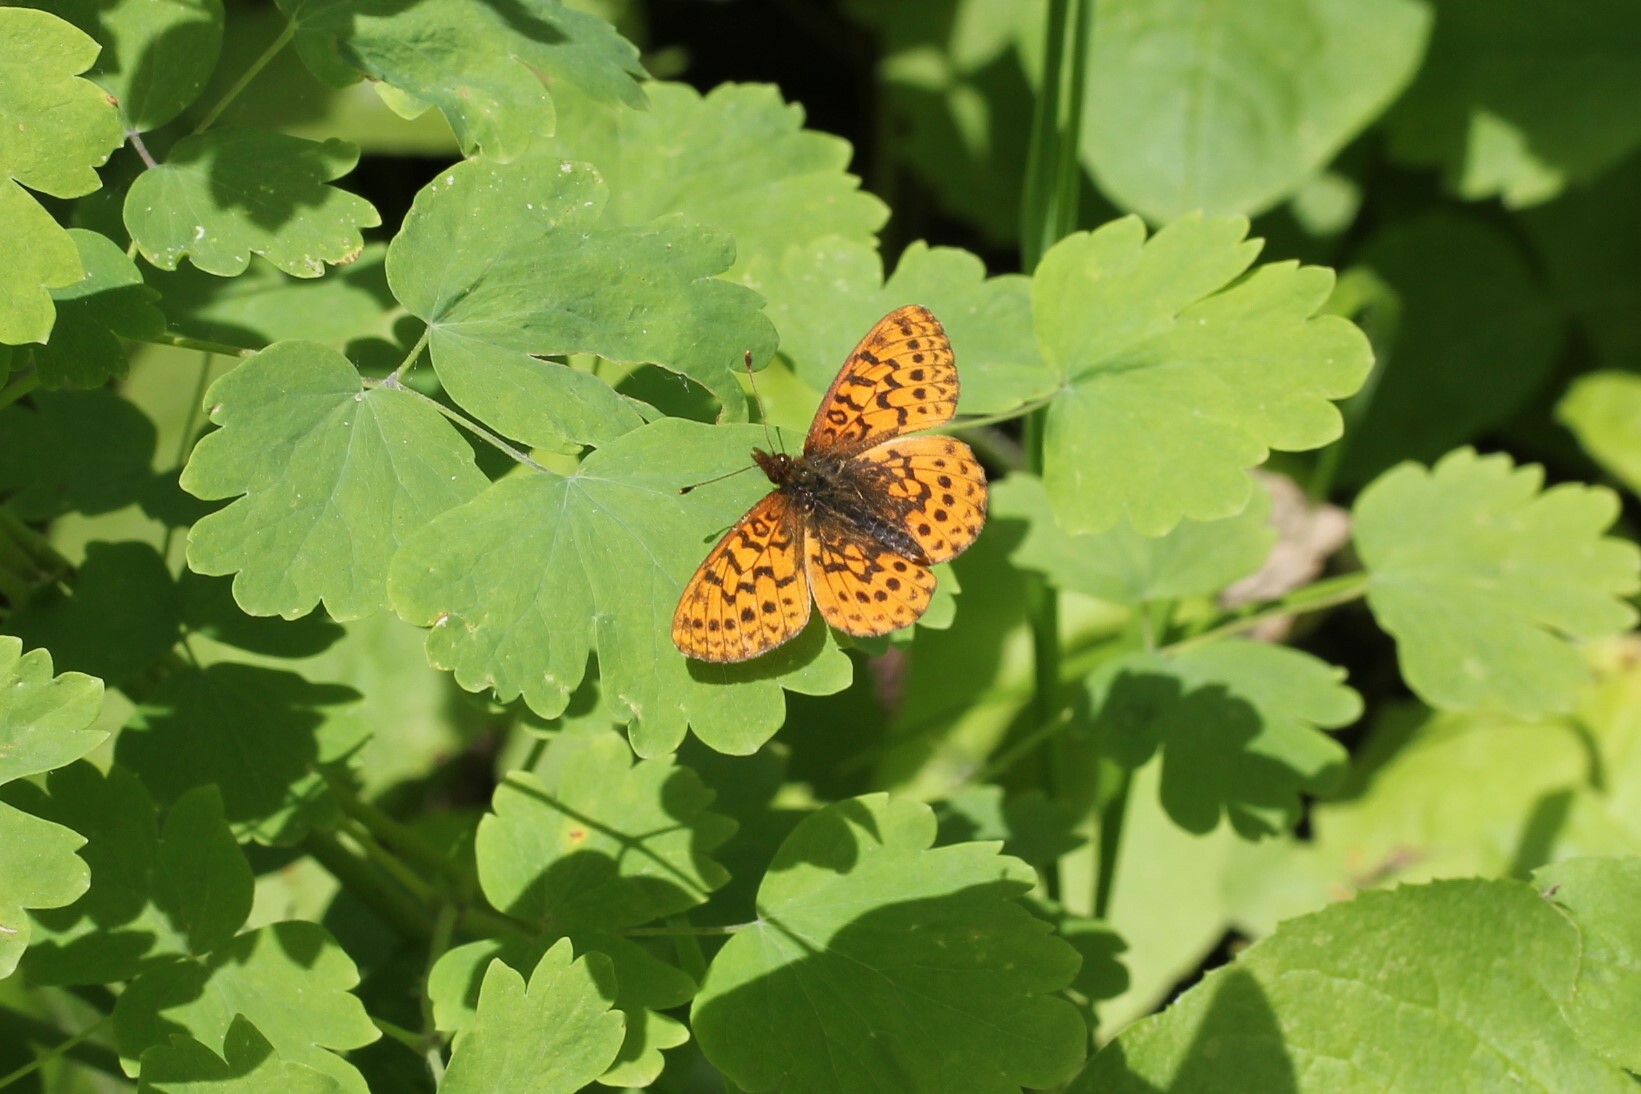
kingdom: Animalia
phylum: Arthropoda
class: Insecta
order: Lepidoptera
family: Nymphalidae
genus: Boloria
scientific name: Boloria epithore
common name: Pacific fritillary
